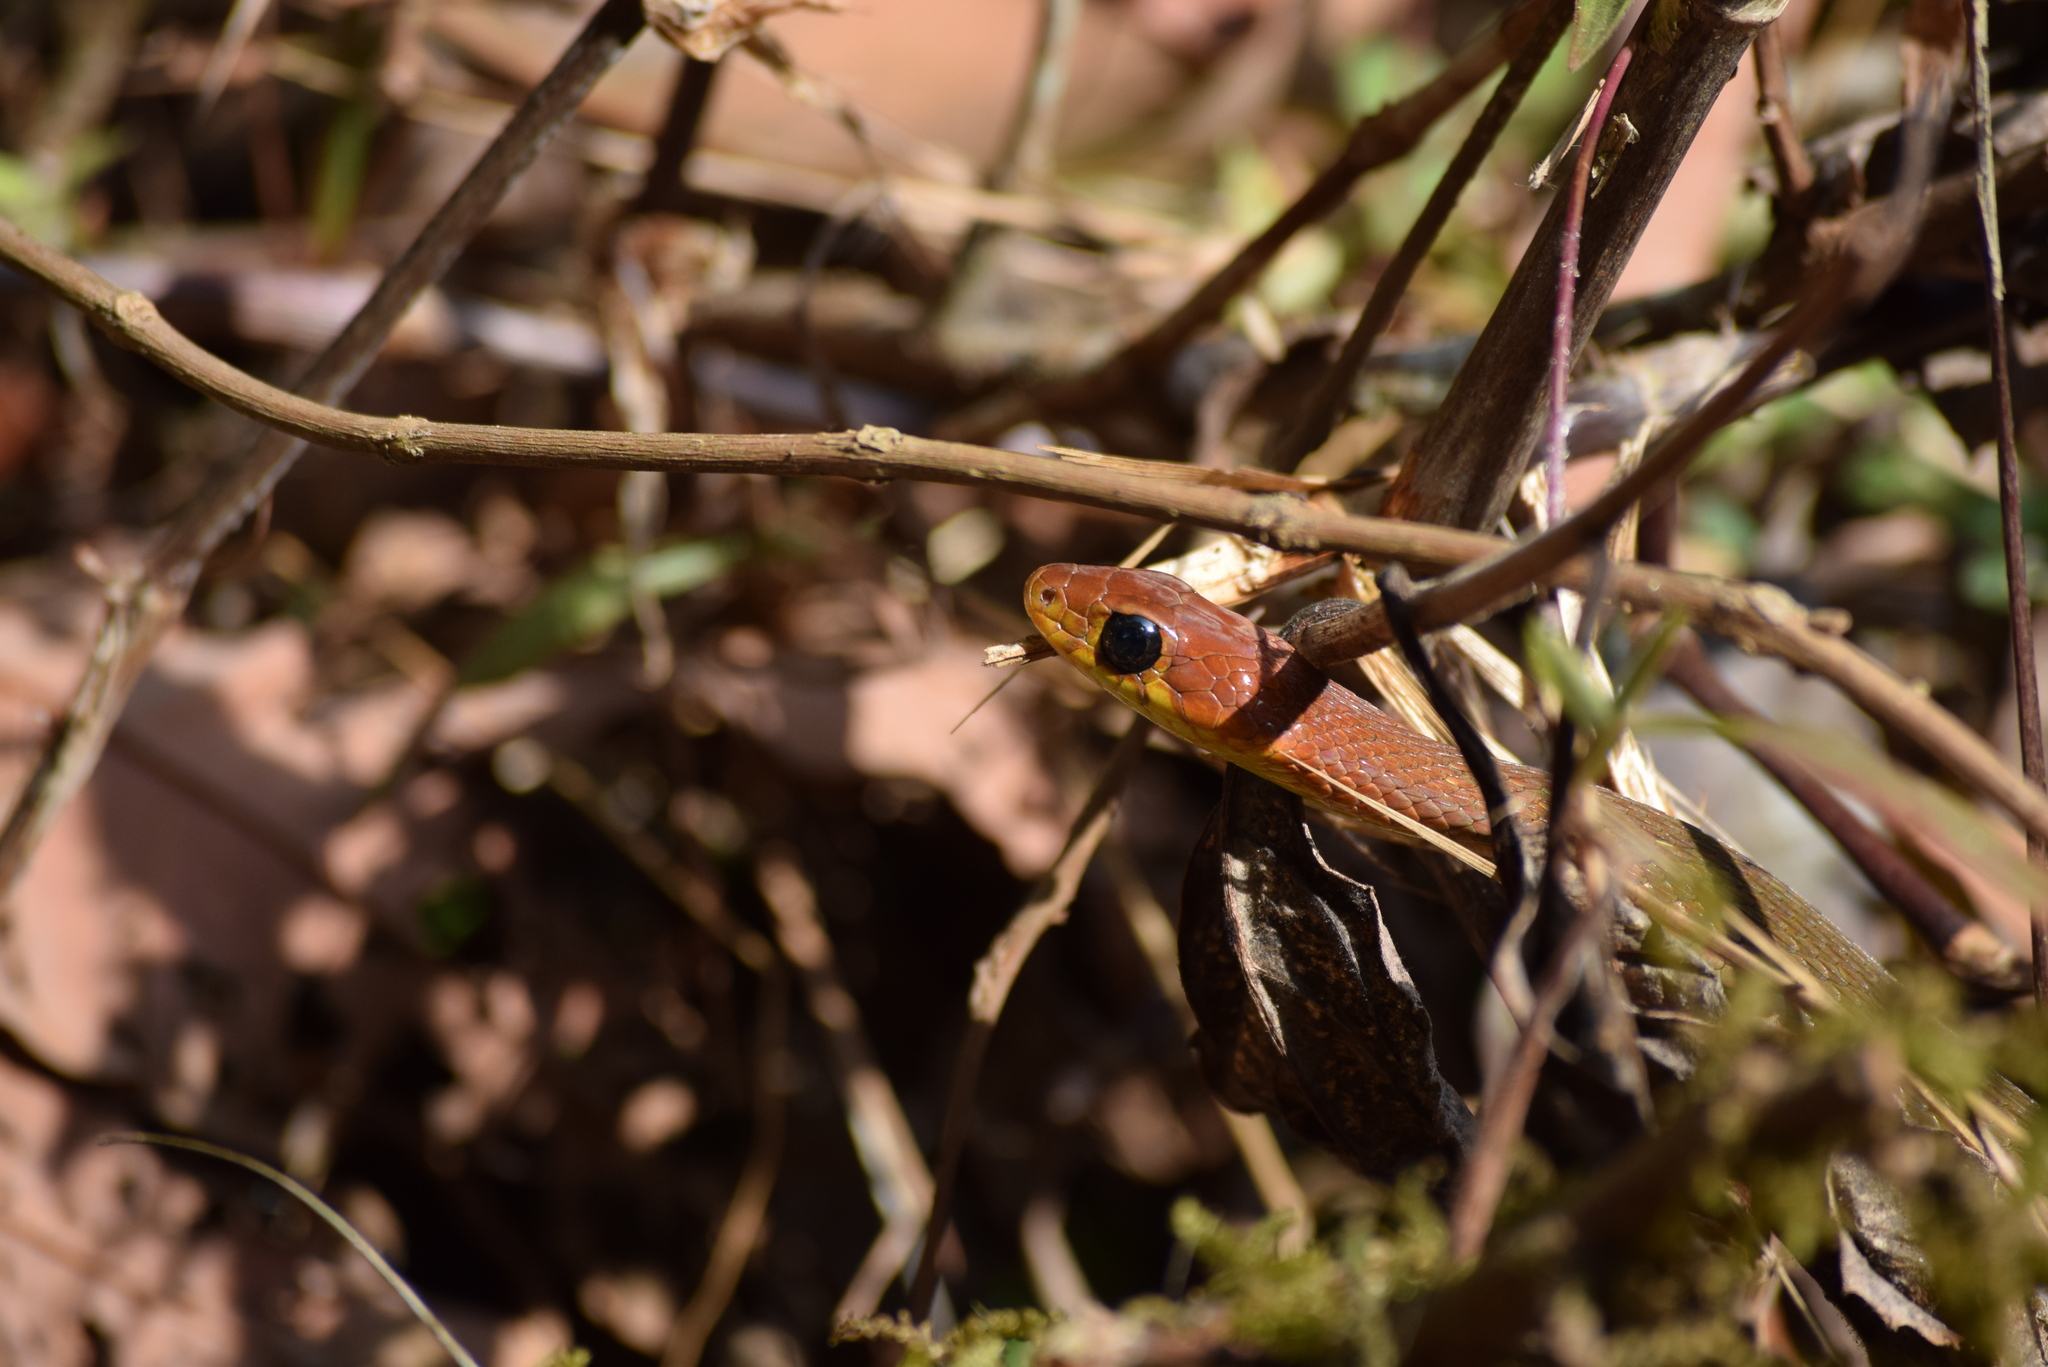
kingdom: Animalia
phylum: Chordata
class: Squamata
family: Colubridae
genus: Hebius
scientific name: Hebius monticola
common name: Wynad keelback
